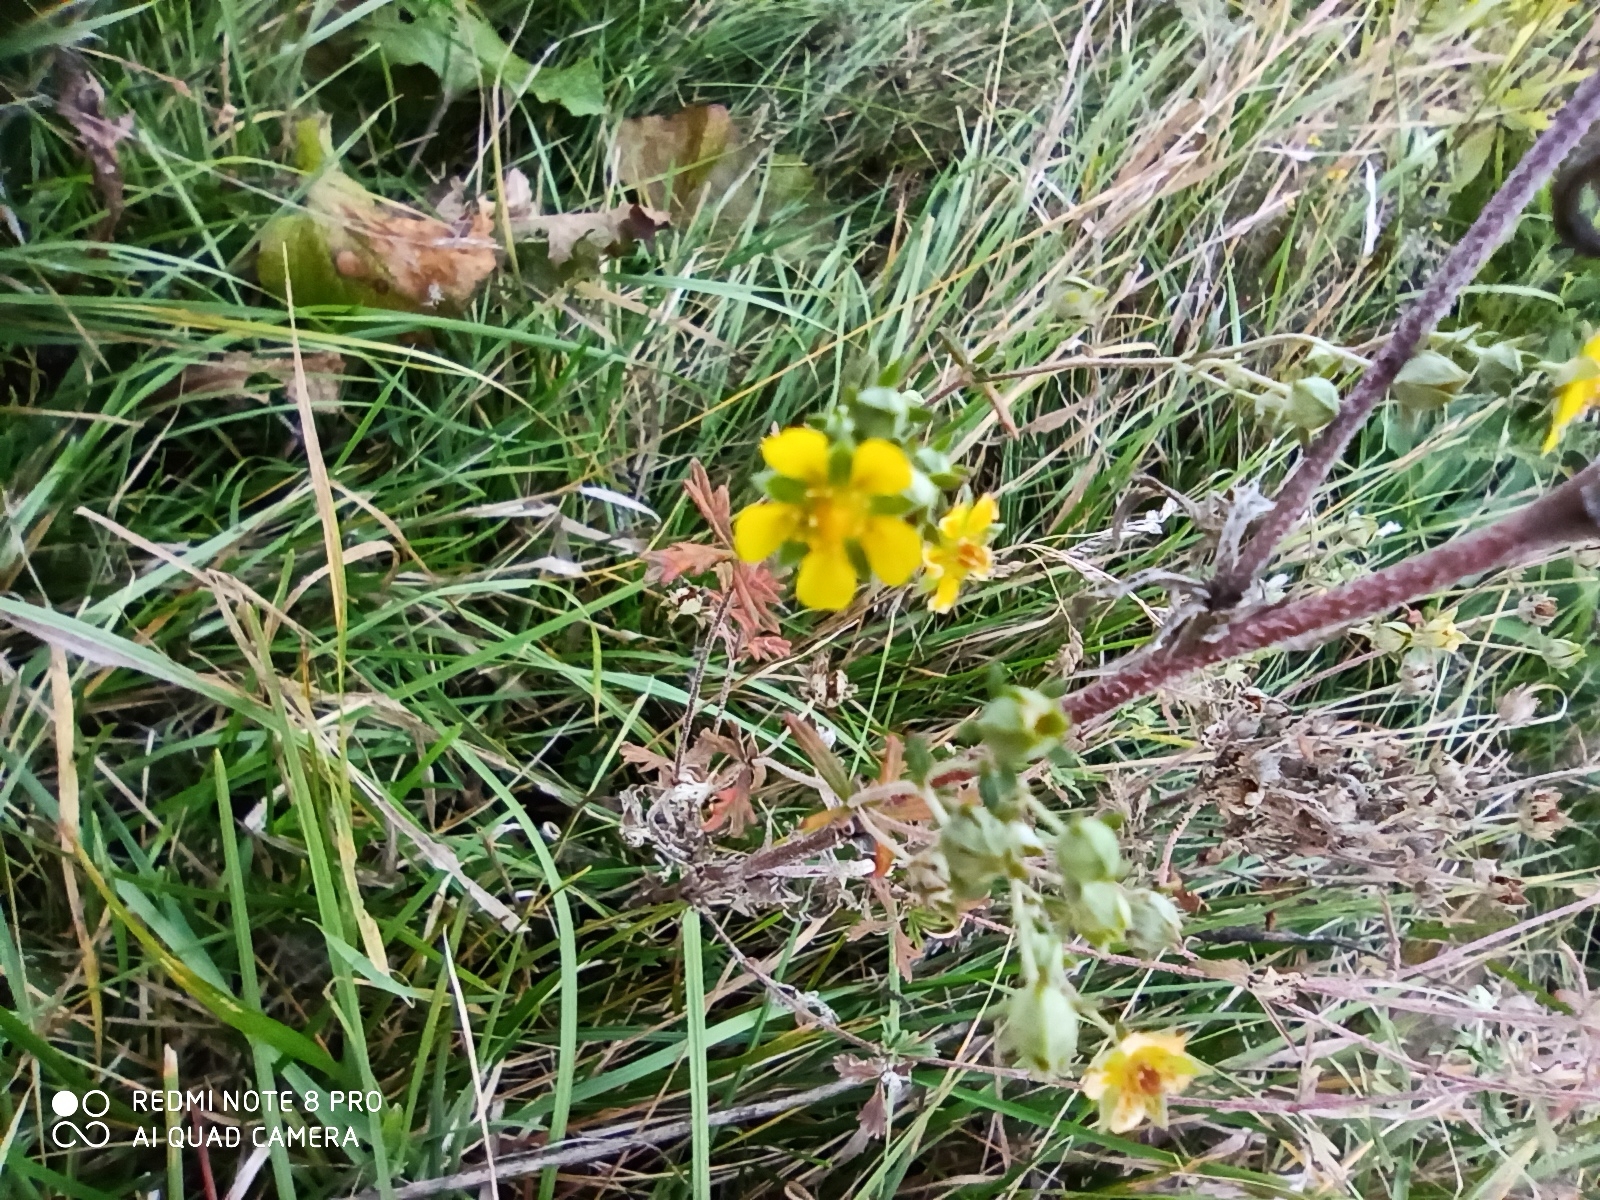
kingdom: Plantae
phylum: Tracheophyta
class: Magnoliopsida
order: Rosales
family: Rosaceae
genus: Potentilla
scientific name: Potentilla argentea
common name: Hoary cinquefoil
